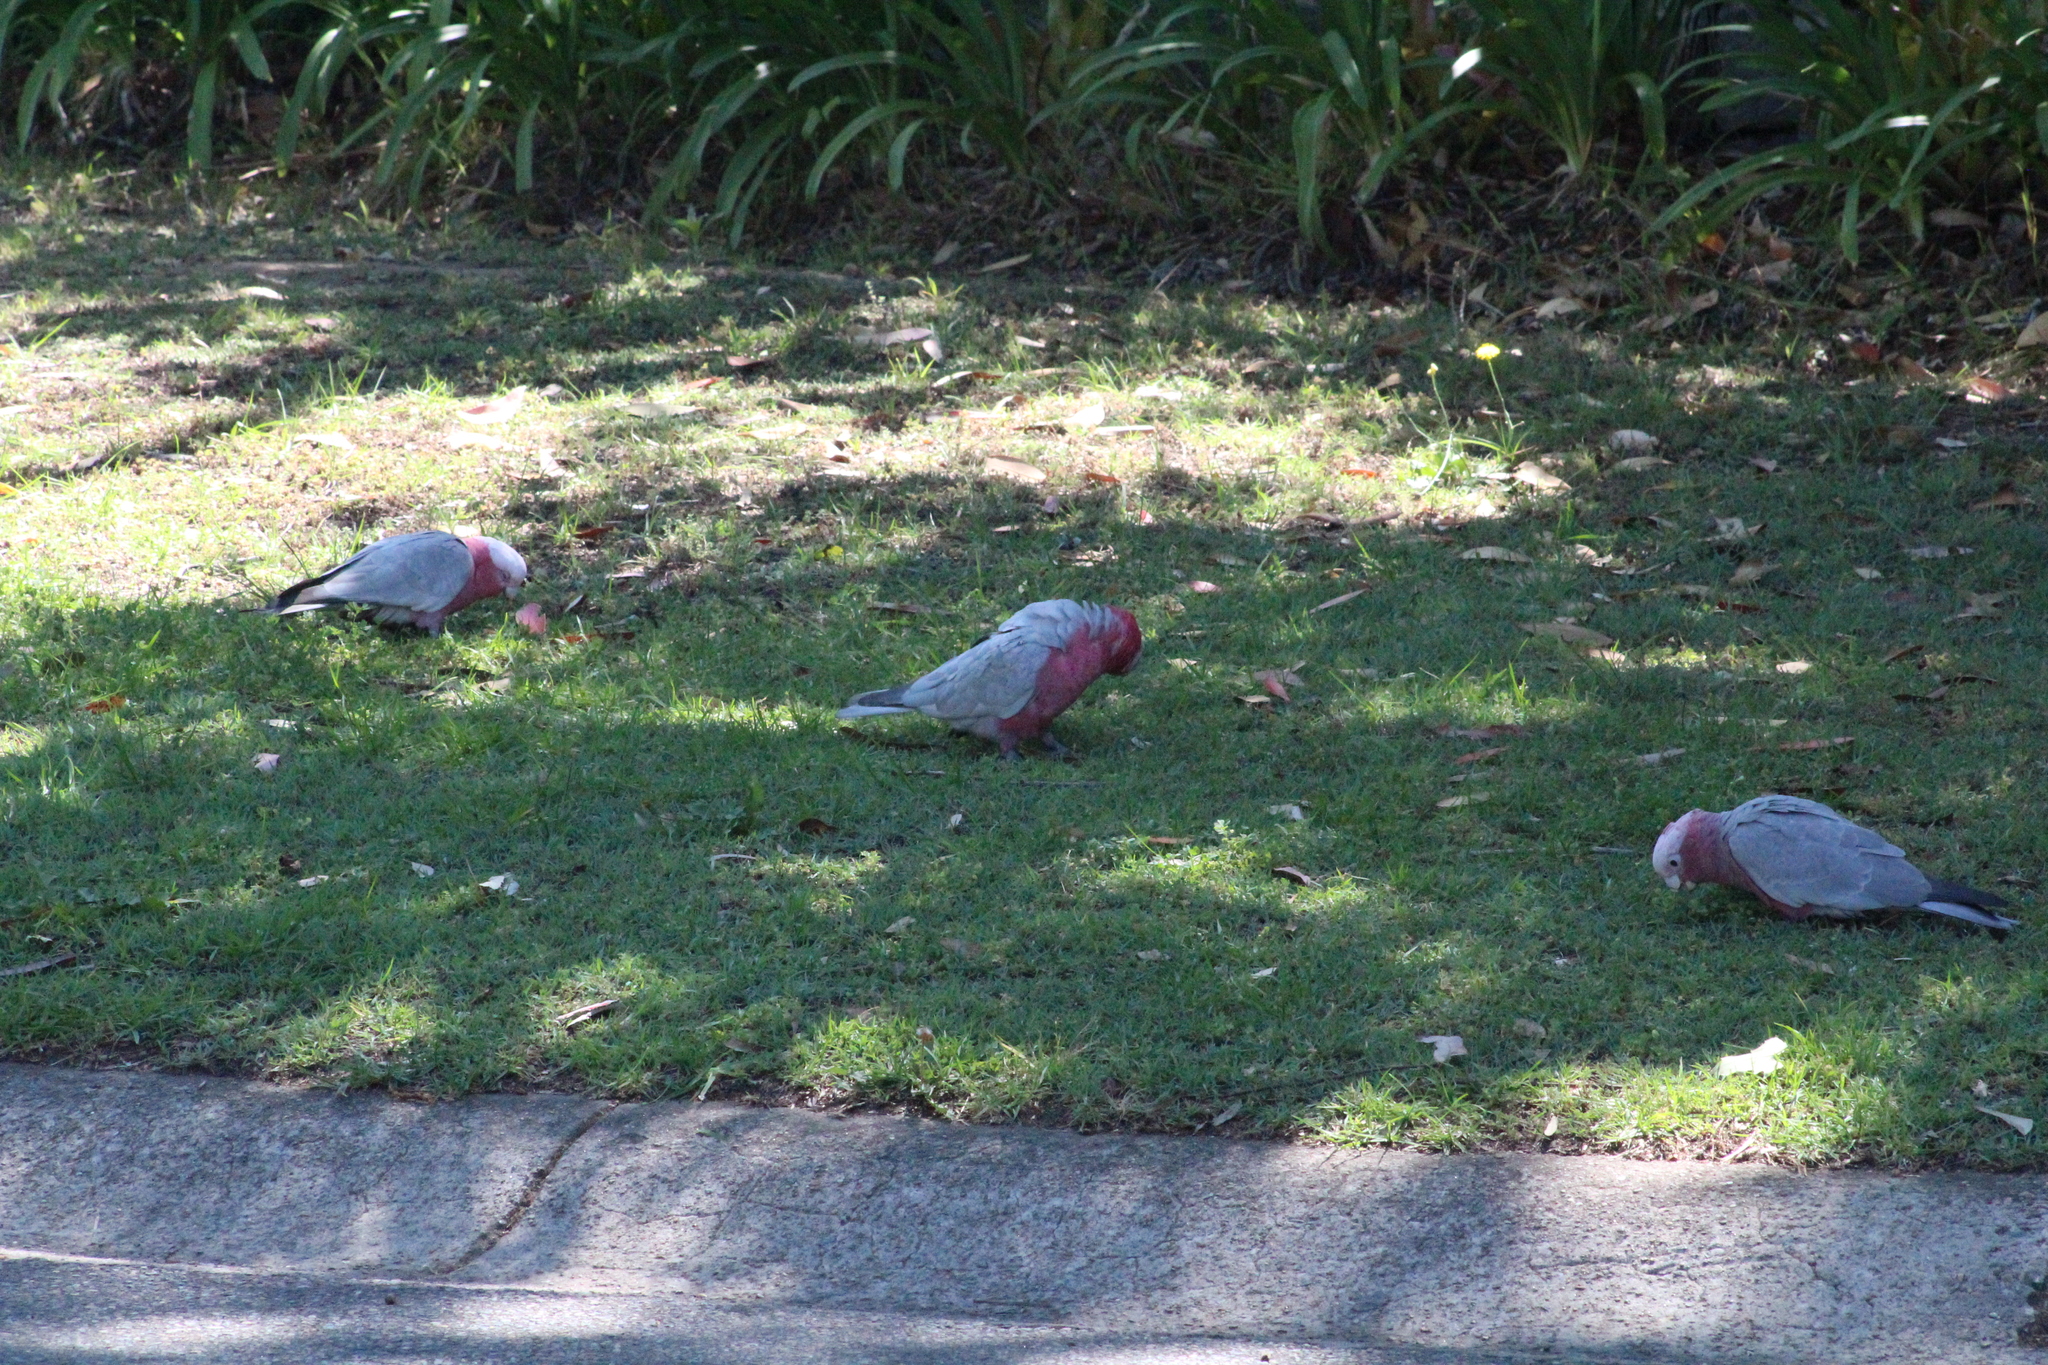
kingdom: Animalia
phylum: Chordata
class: Aves
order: Psittaciformes
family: Psittacidae
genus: Eolophus
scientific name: Eolophus roseicapilla
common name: Galah
